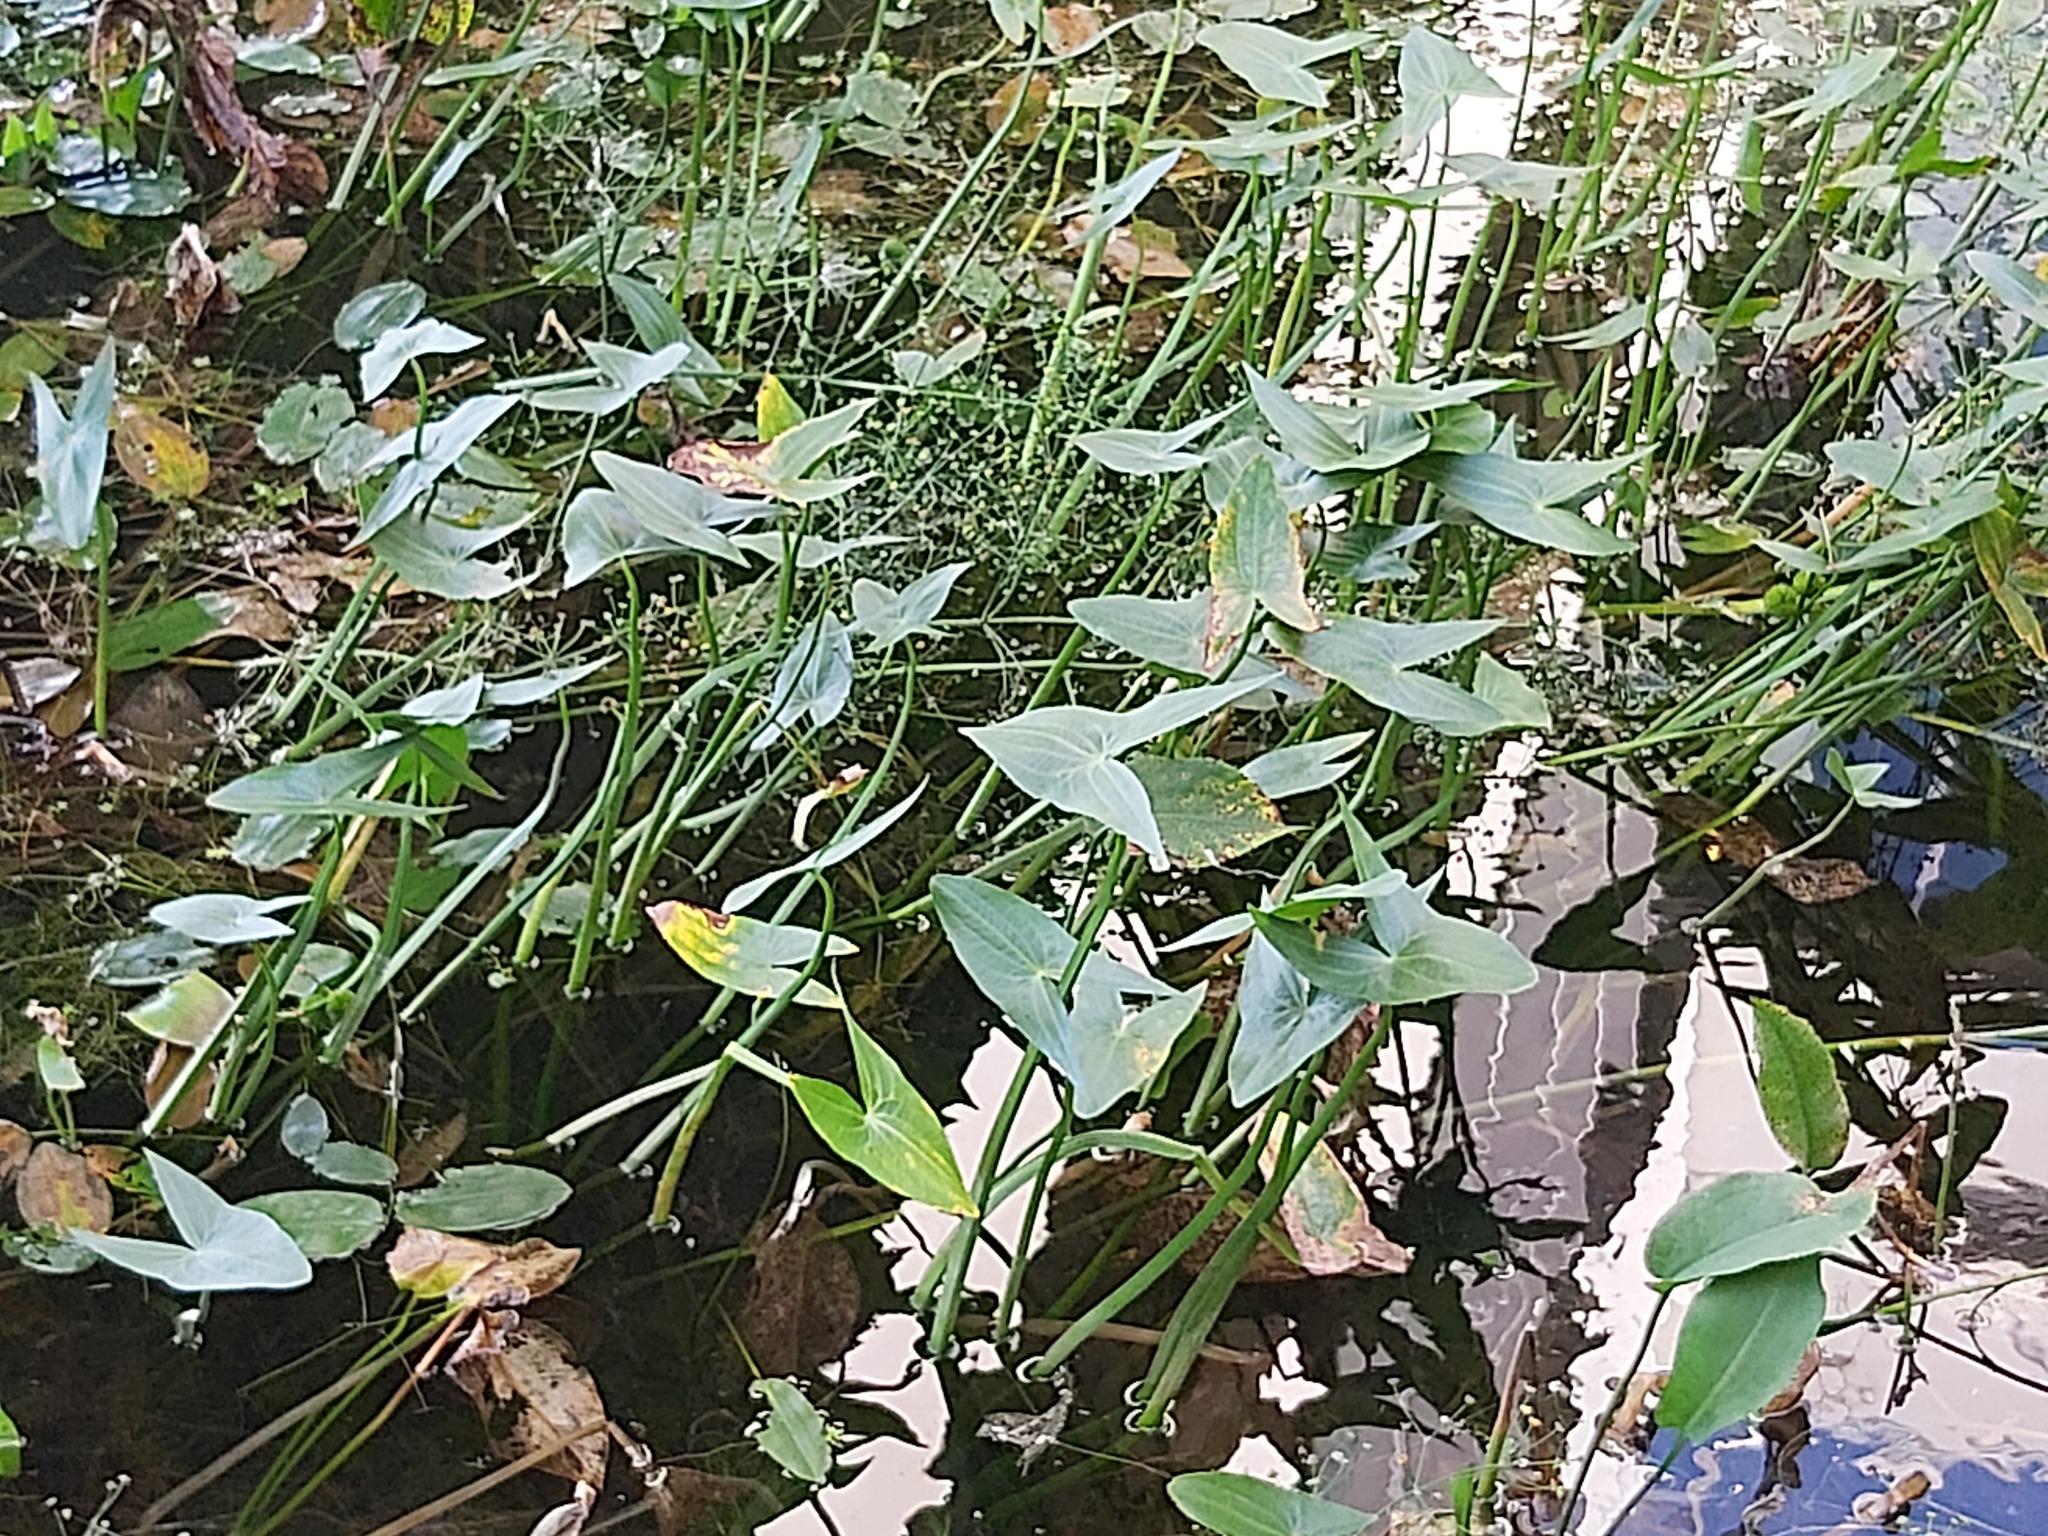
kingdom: Plantae
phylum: Tracheophyta
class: Liliopsida
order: Alismatales
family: Alismataceae
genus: Sagittaria
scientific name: Sagittaria sagittifolia
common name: Arrowhead
